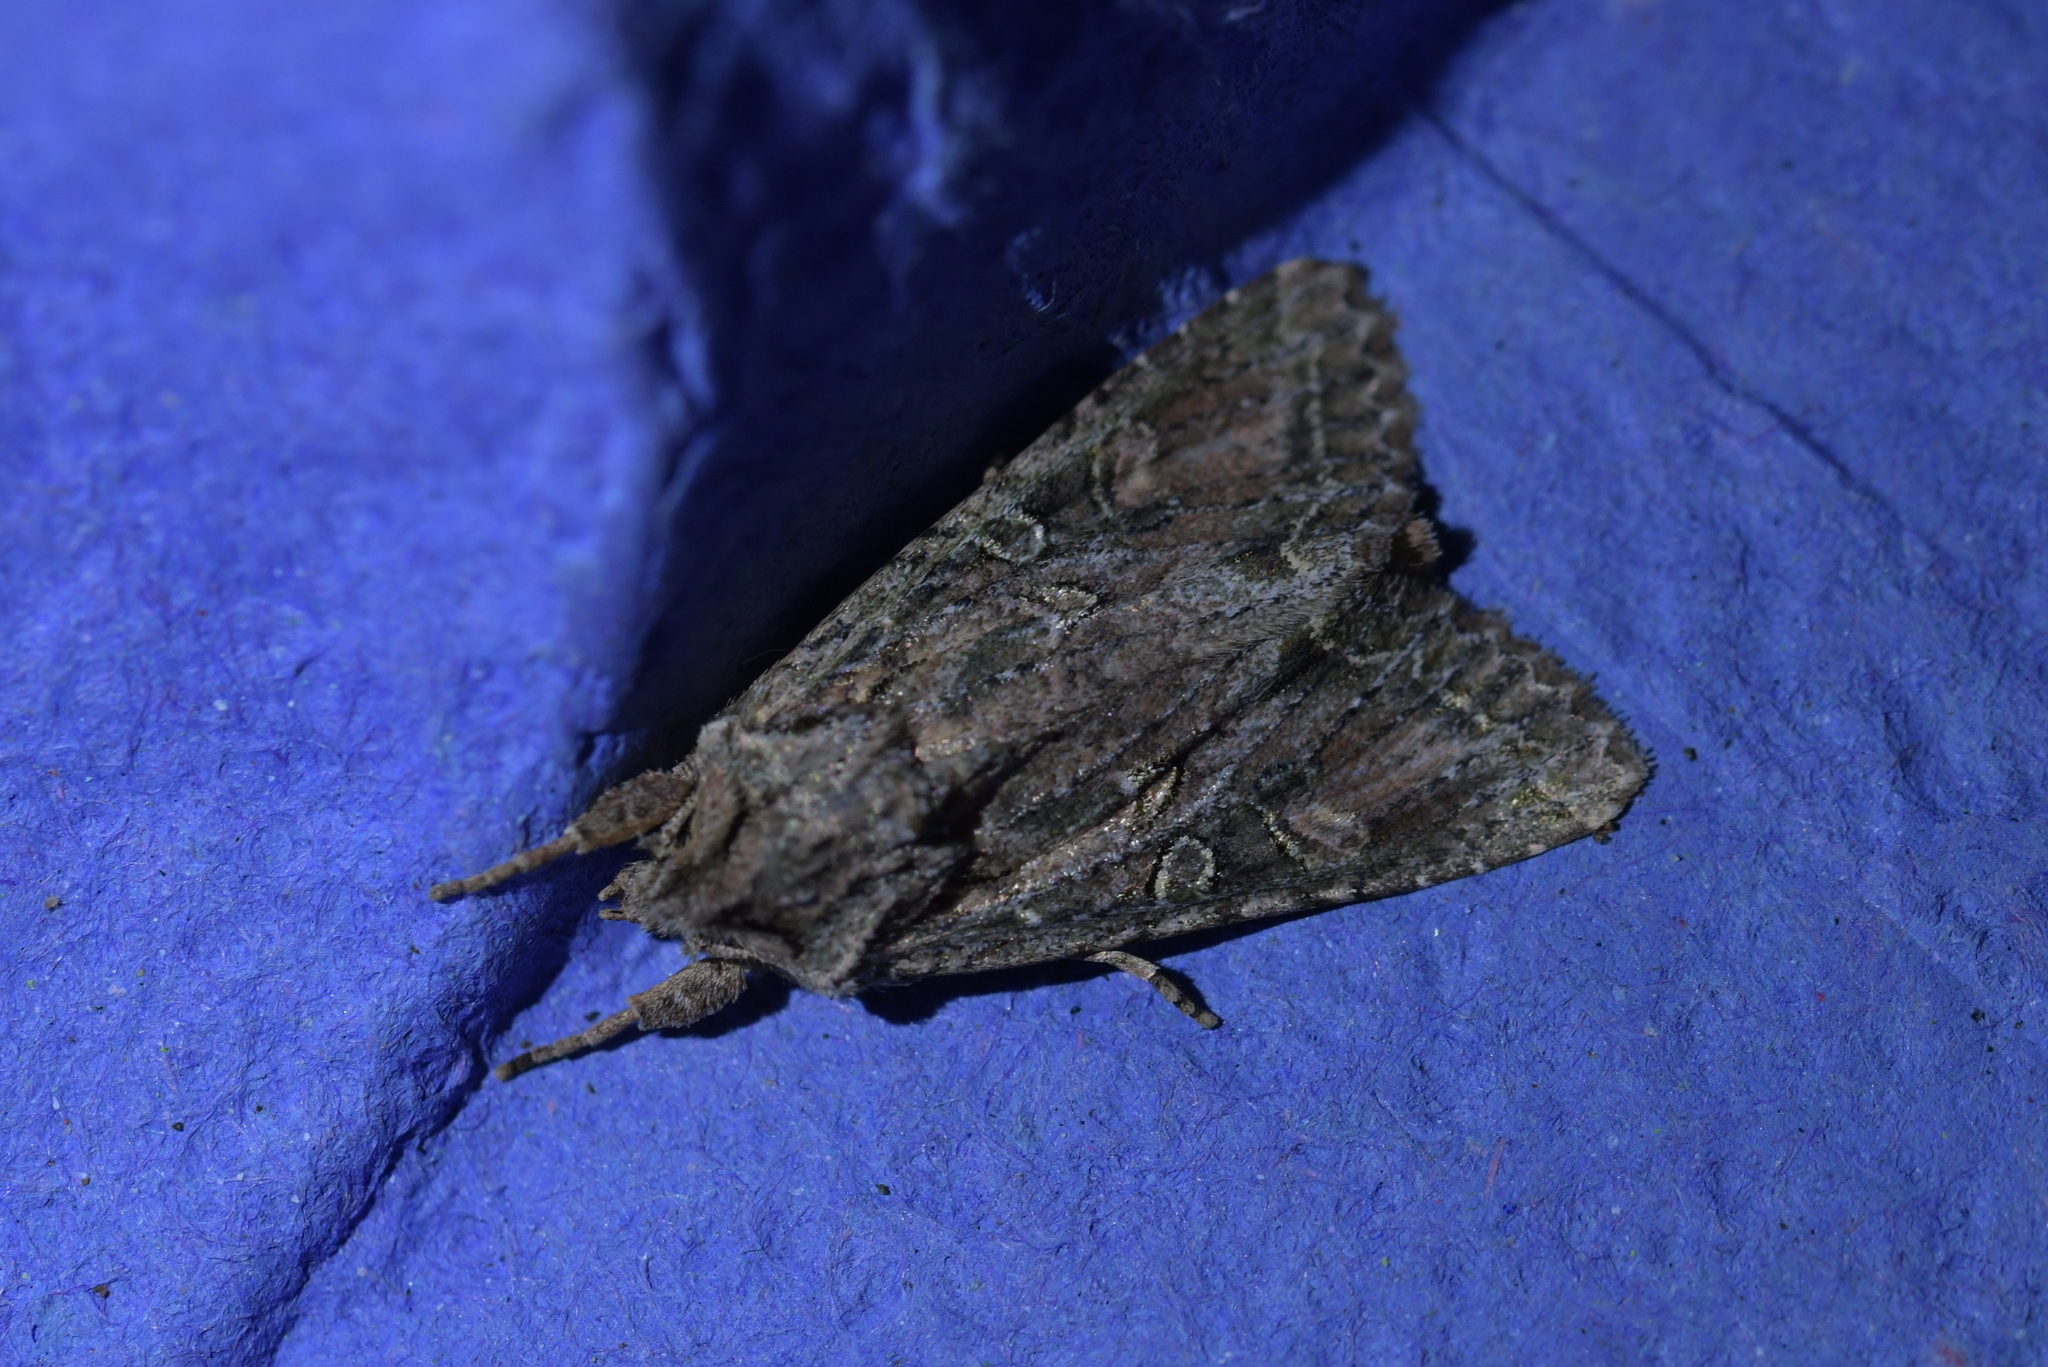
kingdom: Animalia
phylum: Arthropoda
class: Insecta
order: Lepidoptera
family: Noctuidae
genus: Ichneutica
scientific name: Ichneutica mutans
